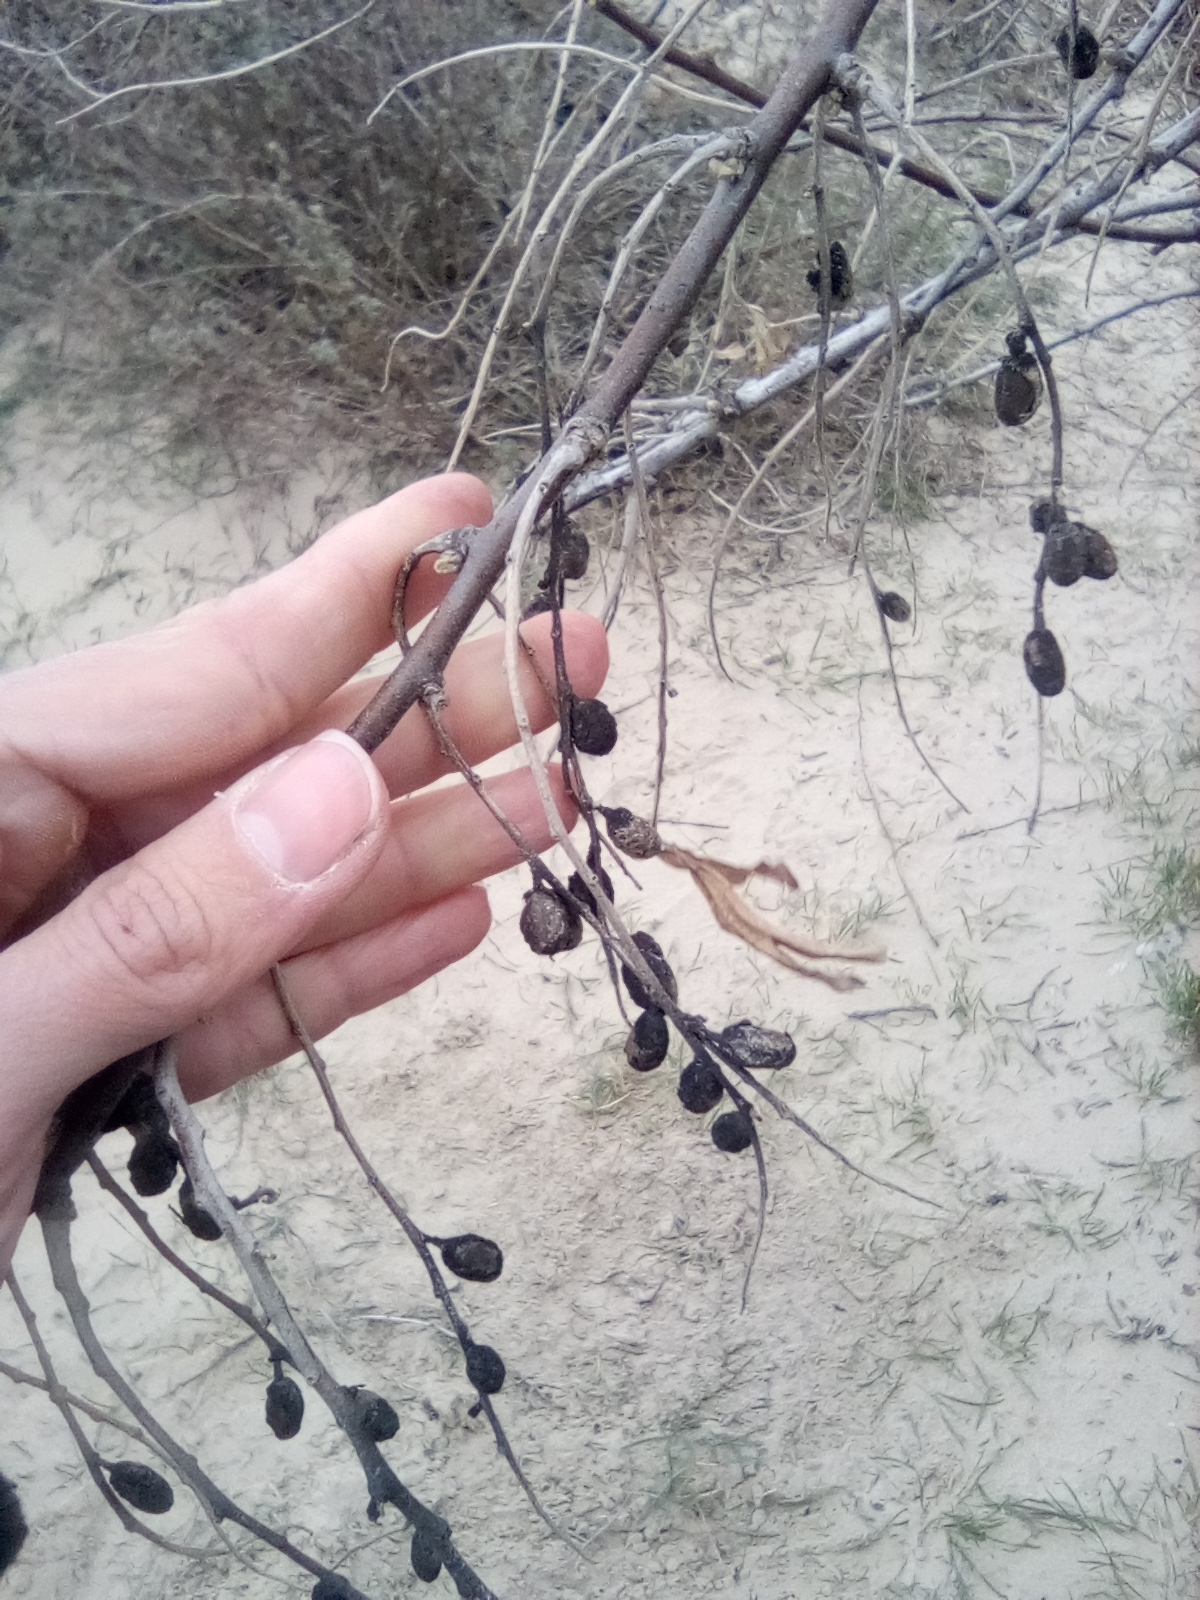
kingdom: Plantae
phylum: Tracheophyta
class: Magnoliopsida
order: Rosales
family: Elaeagnaceae
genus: Elaeagnus
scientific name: Elaeagnus angustifolia
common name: Russian olive
